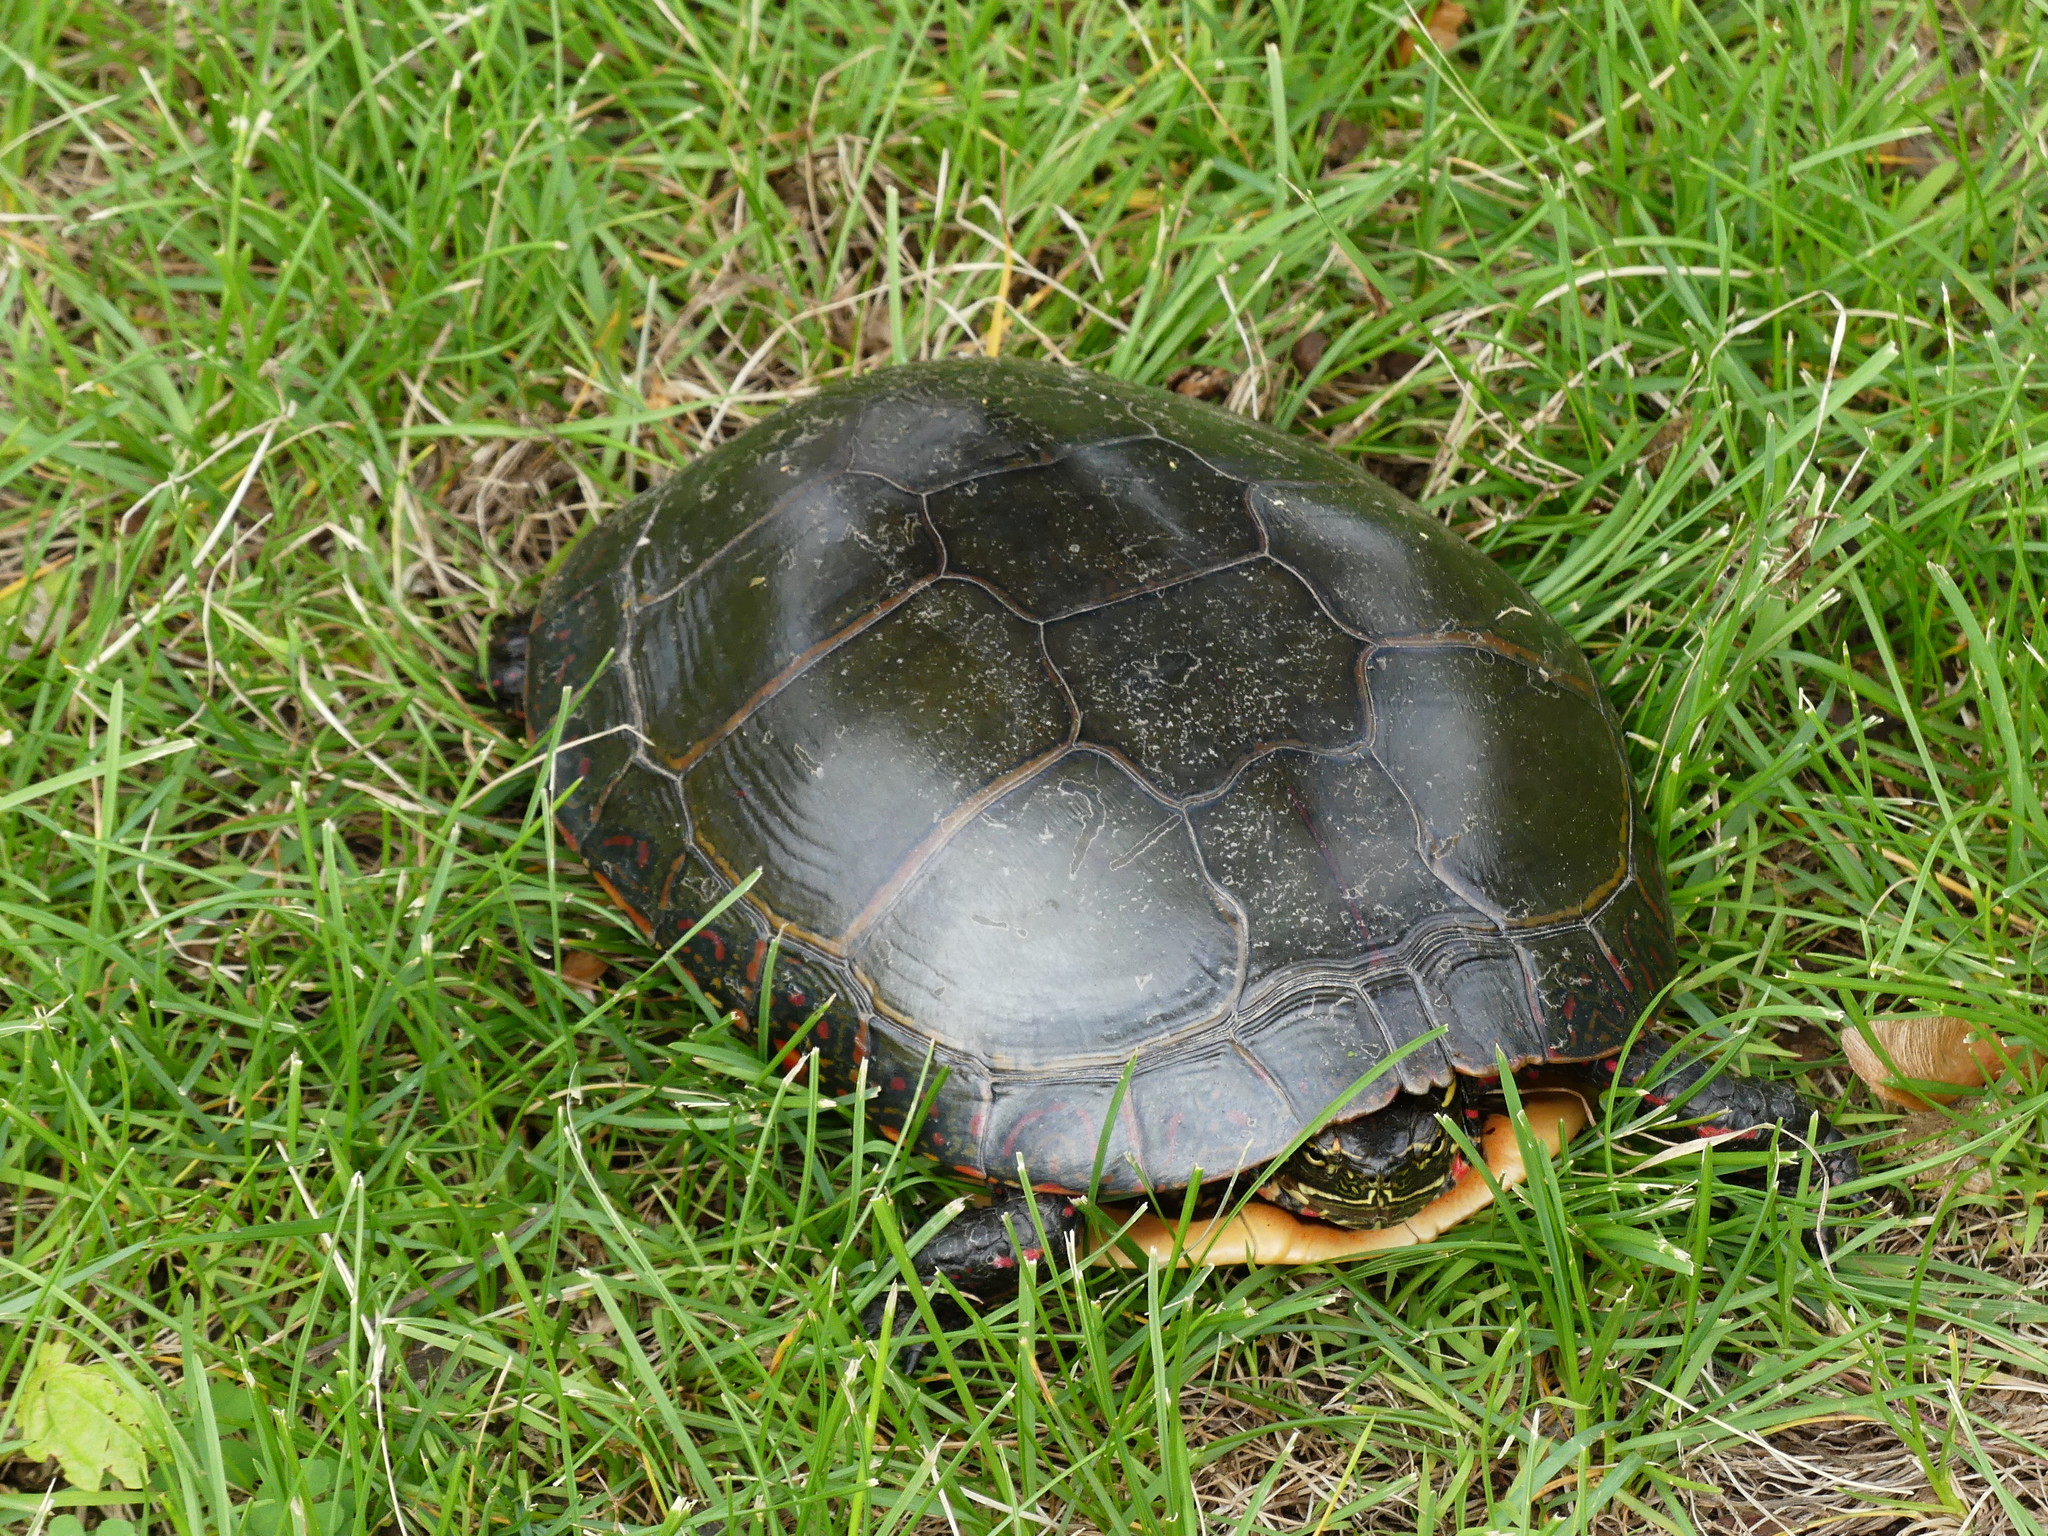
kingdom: Animalia
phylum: Chordata
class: Testudines
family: Emydidae
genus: Chrysemys
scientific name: Chrysemys picta
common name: Painted turtle
